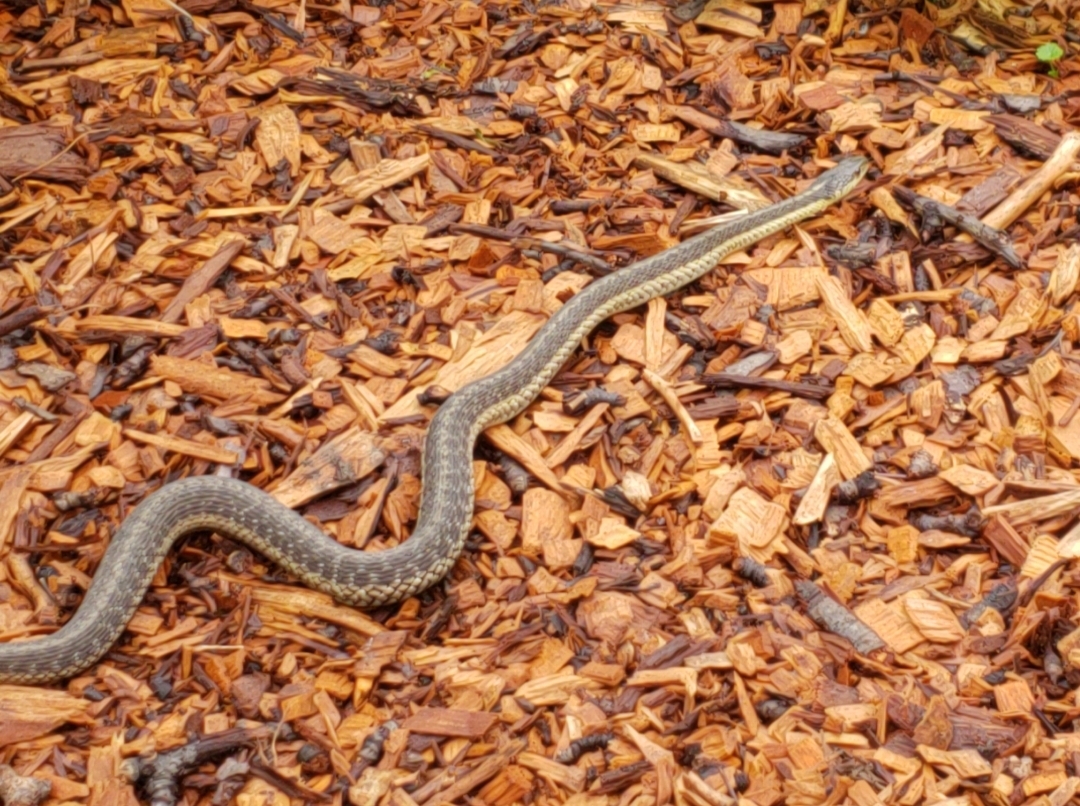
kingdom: Animalia
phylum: Chordata
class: Squamata
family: Colubridae
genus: Thamnophis
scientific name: Thamnophis sirtalis
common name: Common garter snake
